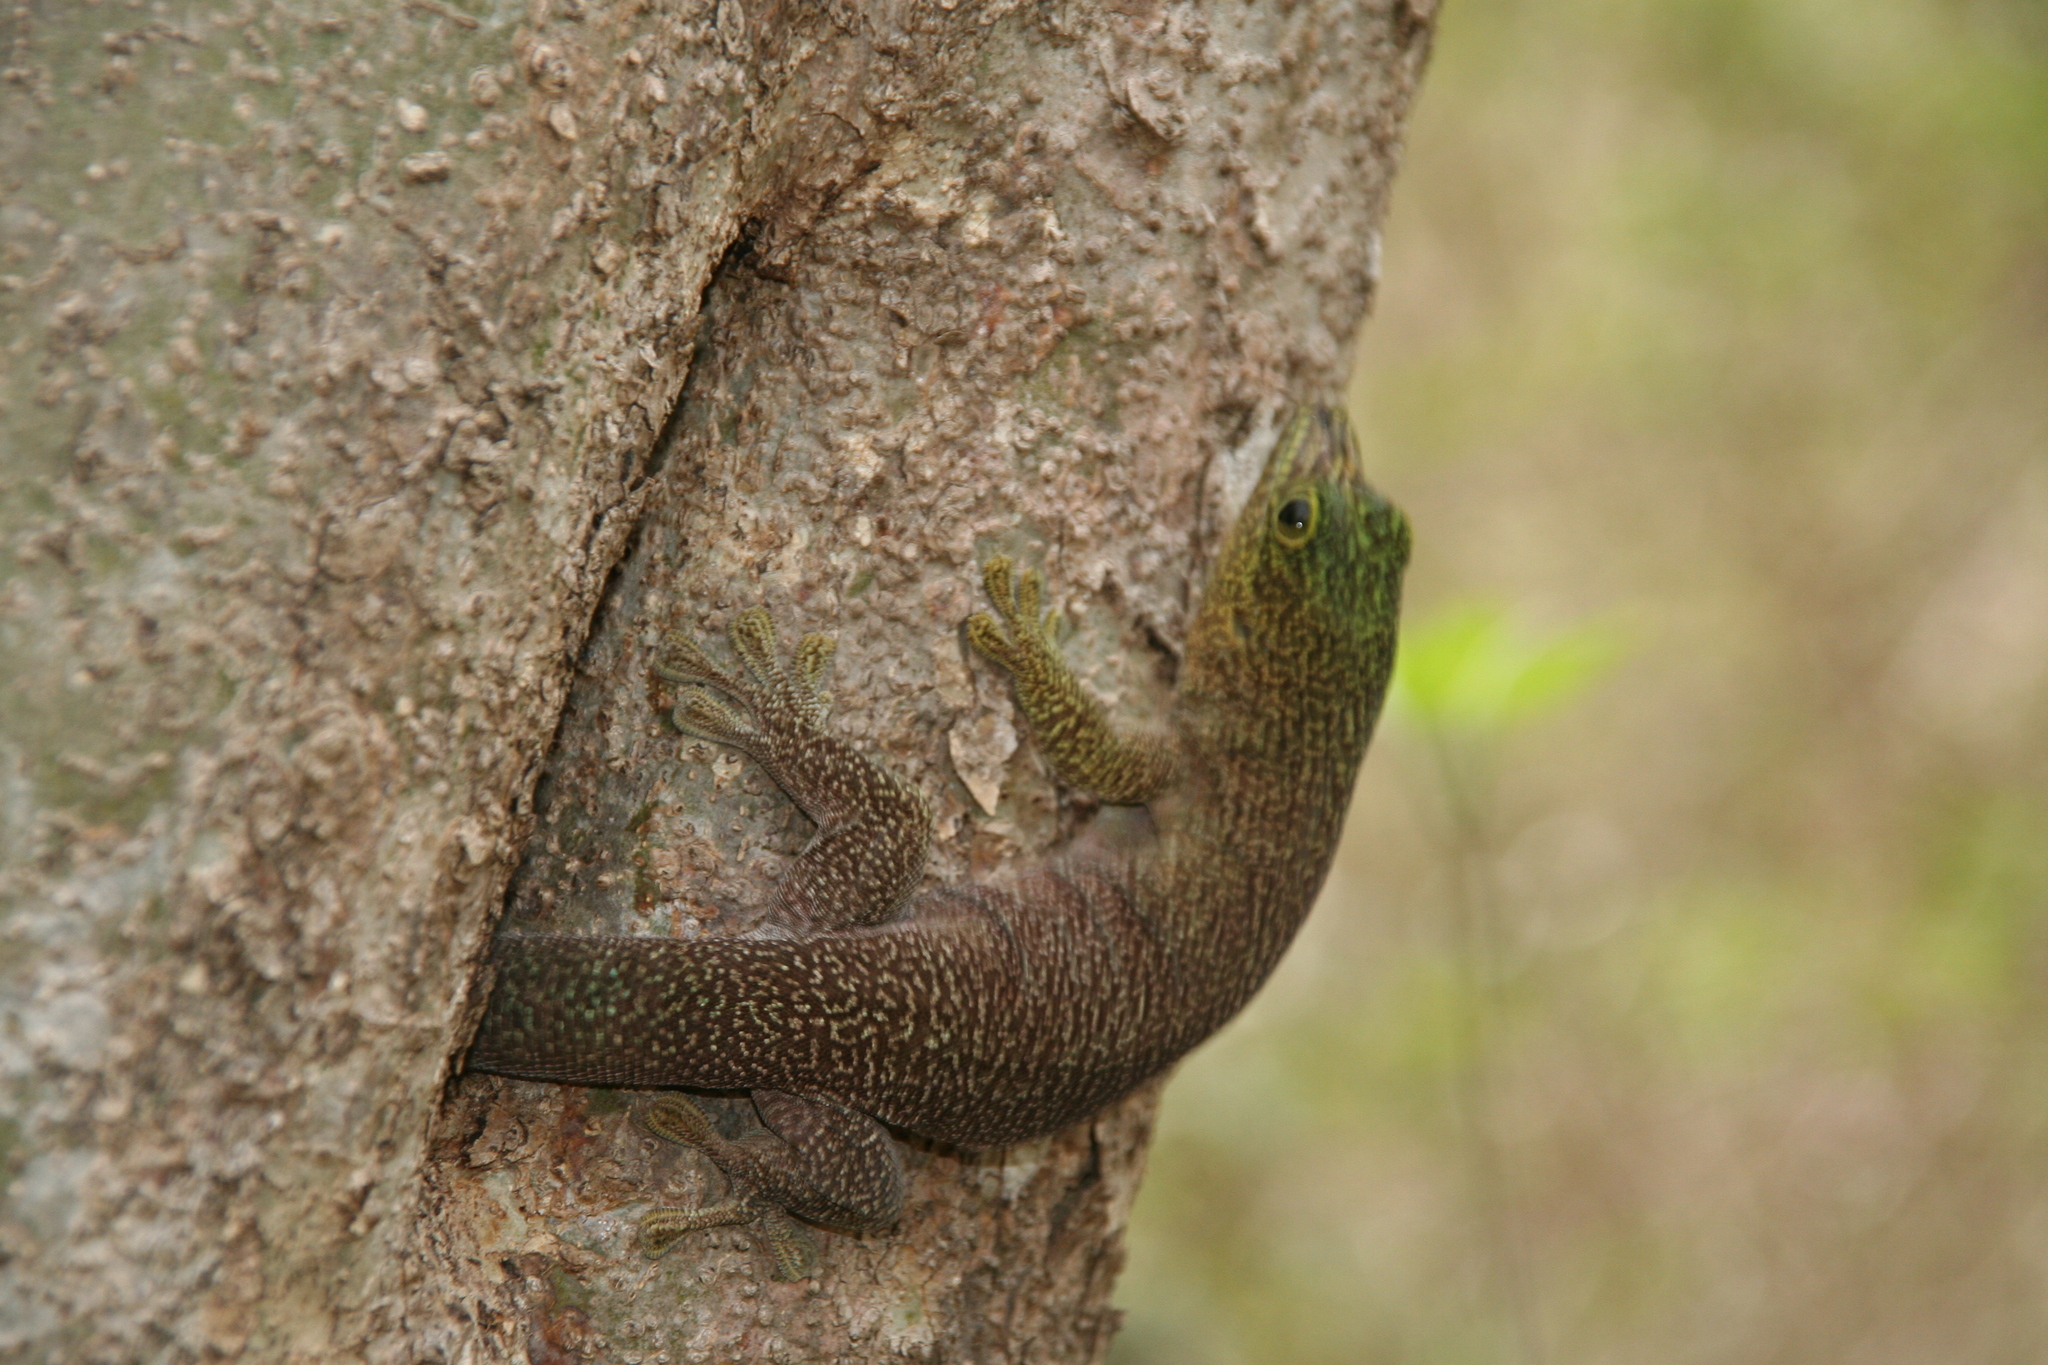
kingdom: Animalia
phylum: Chordata
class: Squamata
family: Gekkonidae
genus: Phelsuma
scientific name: Phelsuma standingi
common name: Standing's day gecko
